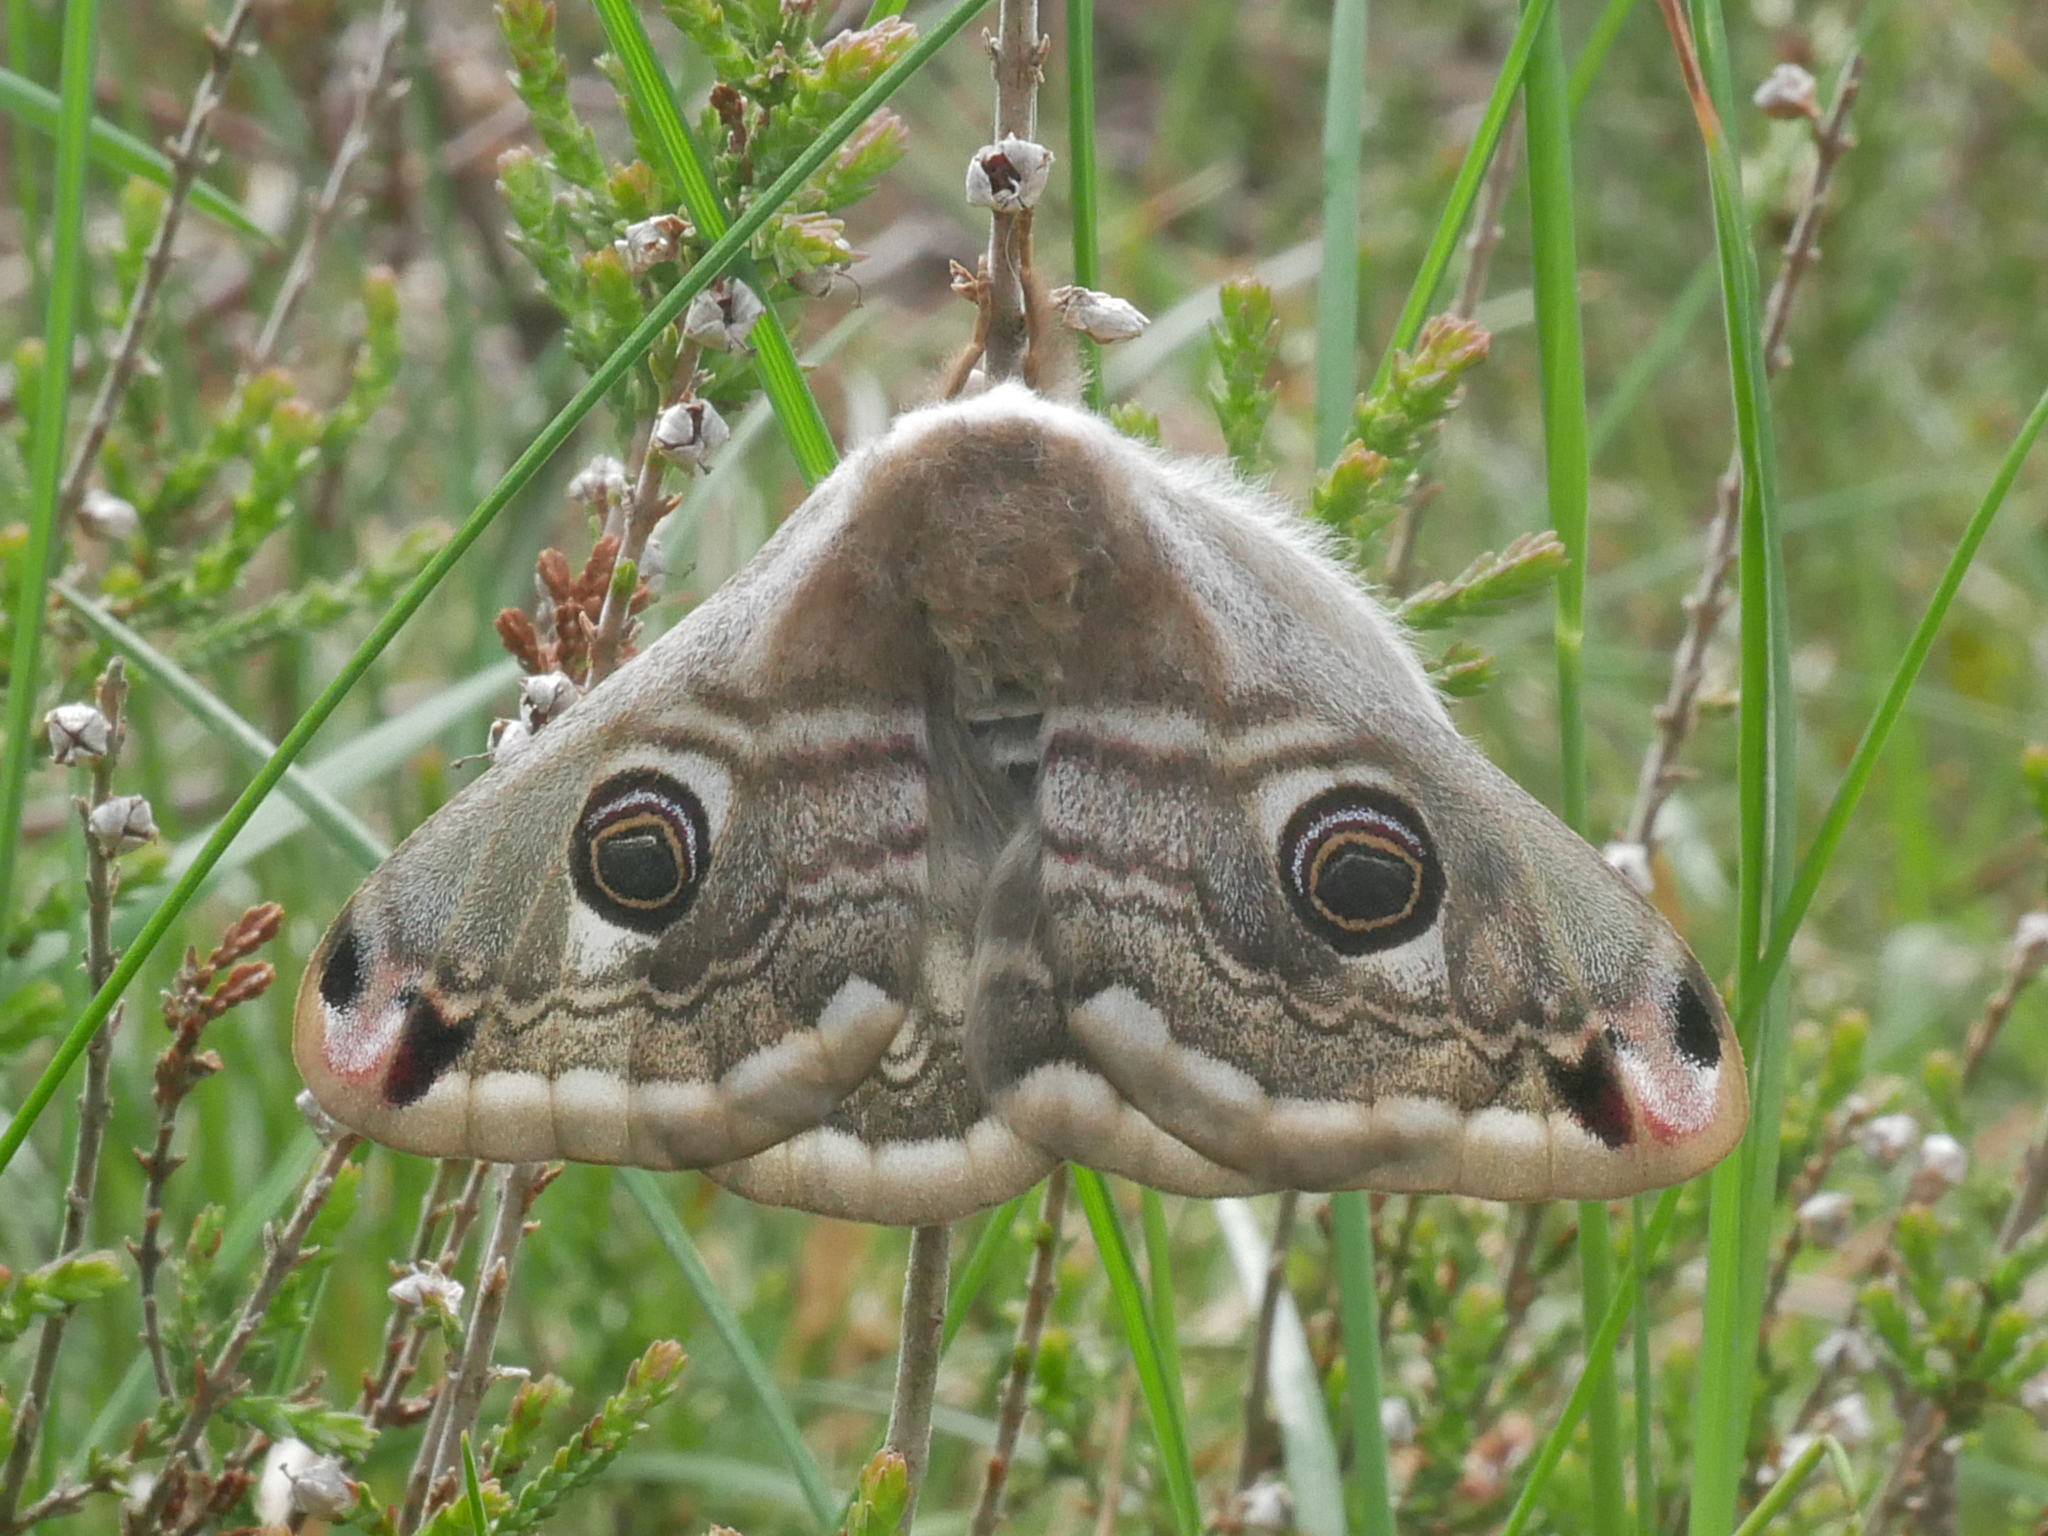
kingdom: Animalia
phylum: Arthropoda
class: Insecta
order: Lepidoptera
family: Saturniidae
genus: Saturnia
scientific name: Saturnia pavonia
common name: Emperor moth
